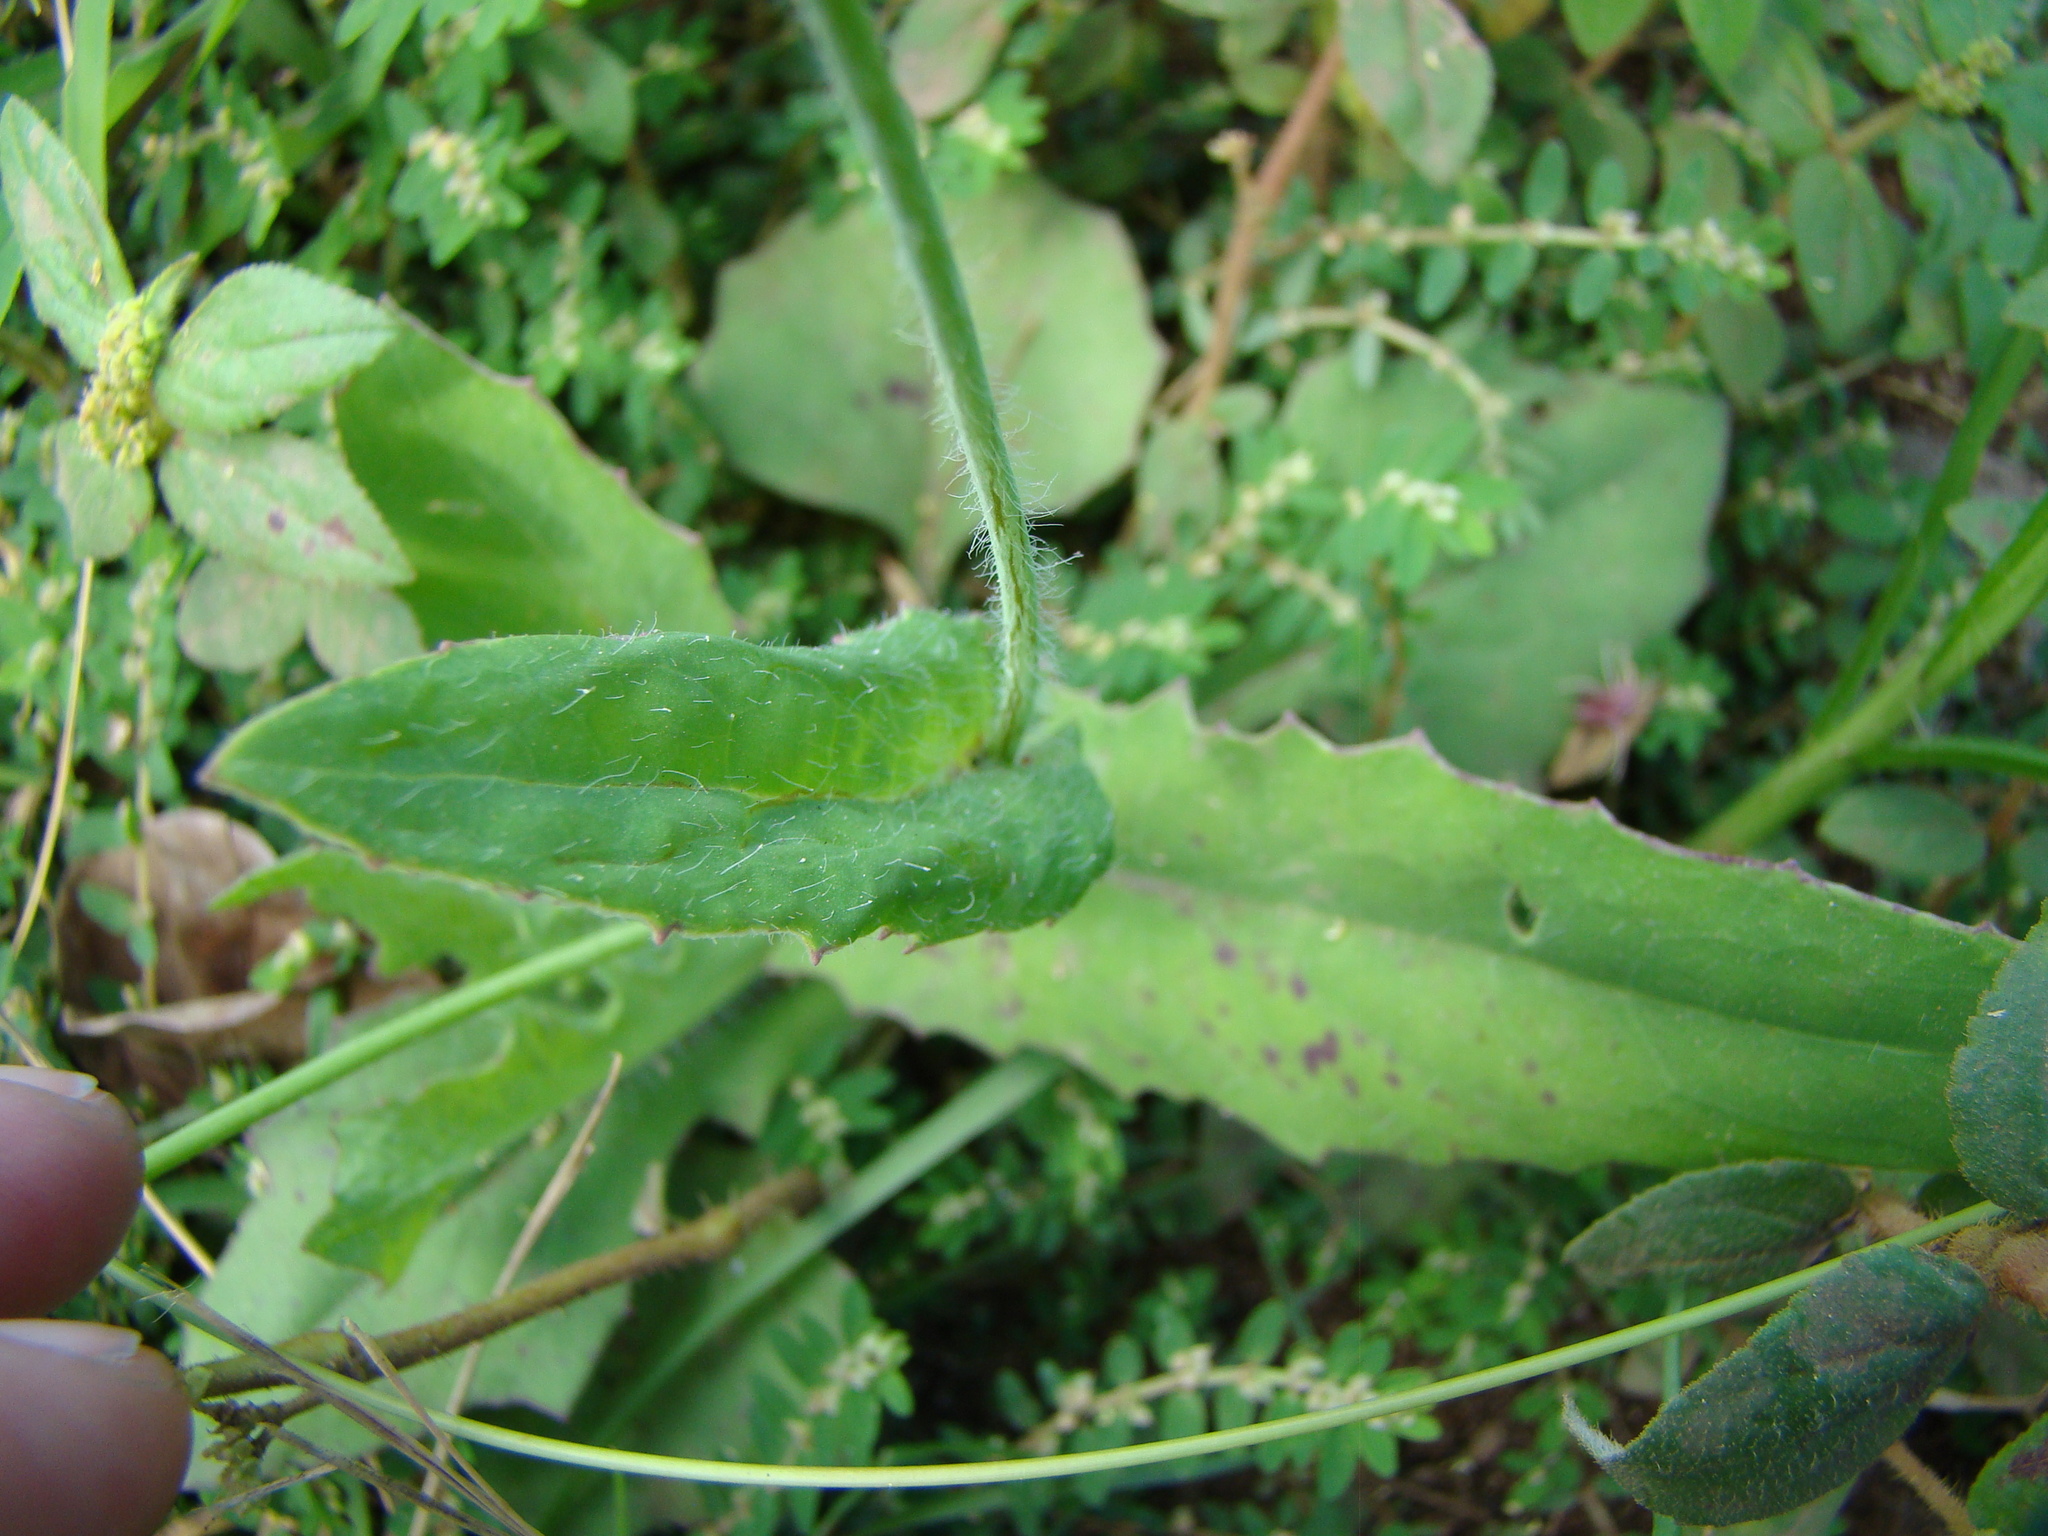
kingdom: Plantae
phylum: Tracheophyta
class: Magnoliopsida
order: Asterales
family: Asteraceae
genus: Emilia
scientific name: Emilia fosbergii
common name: Florida tasselflower
